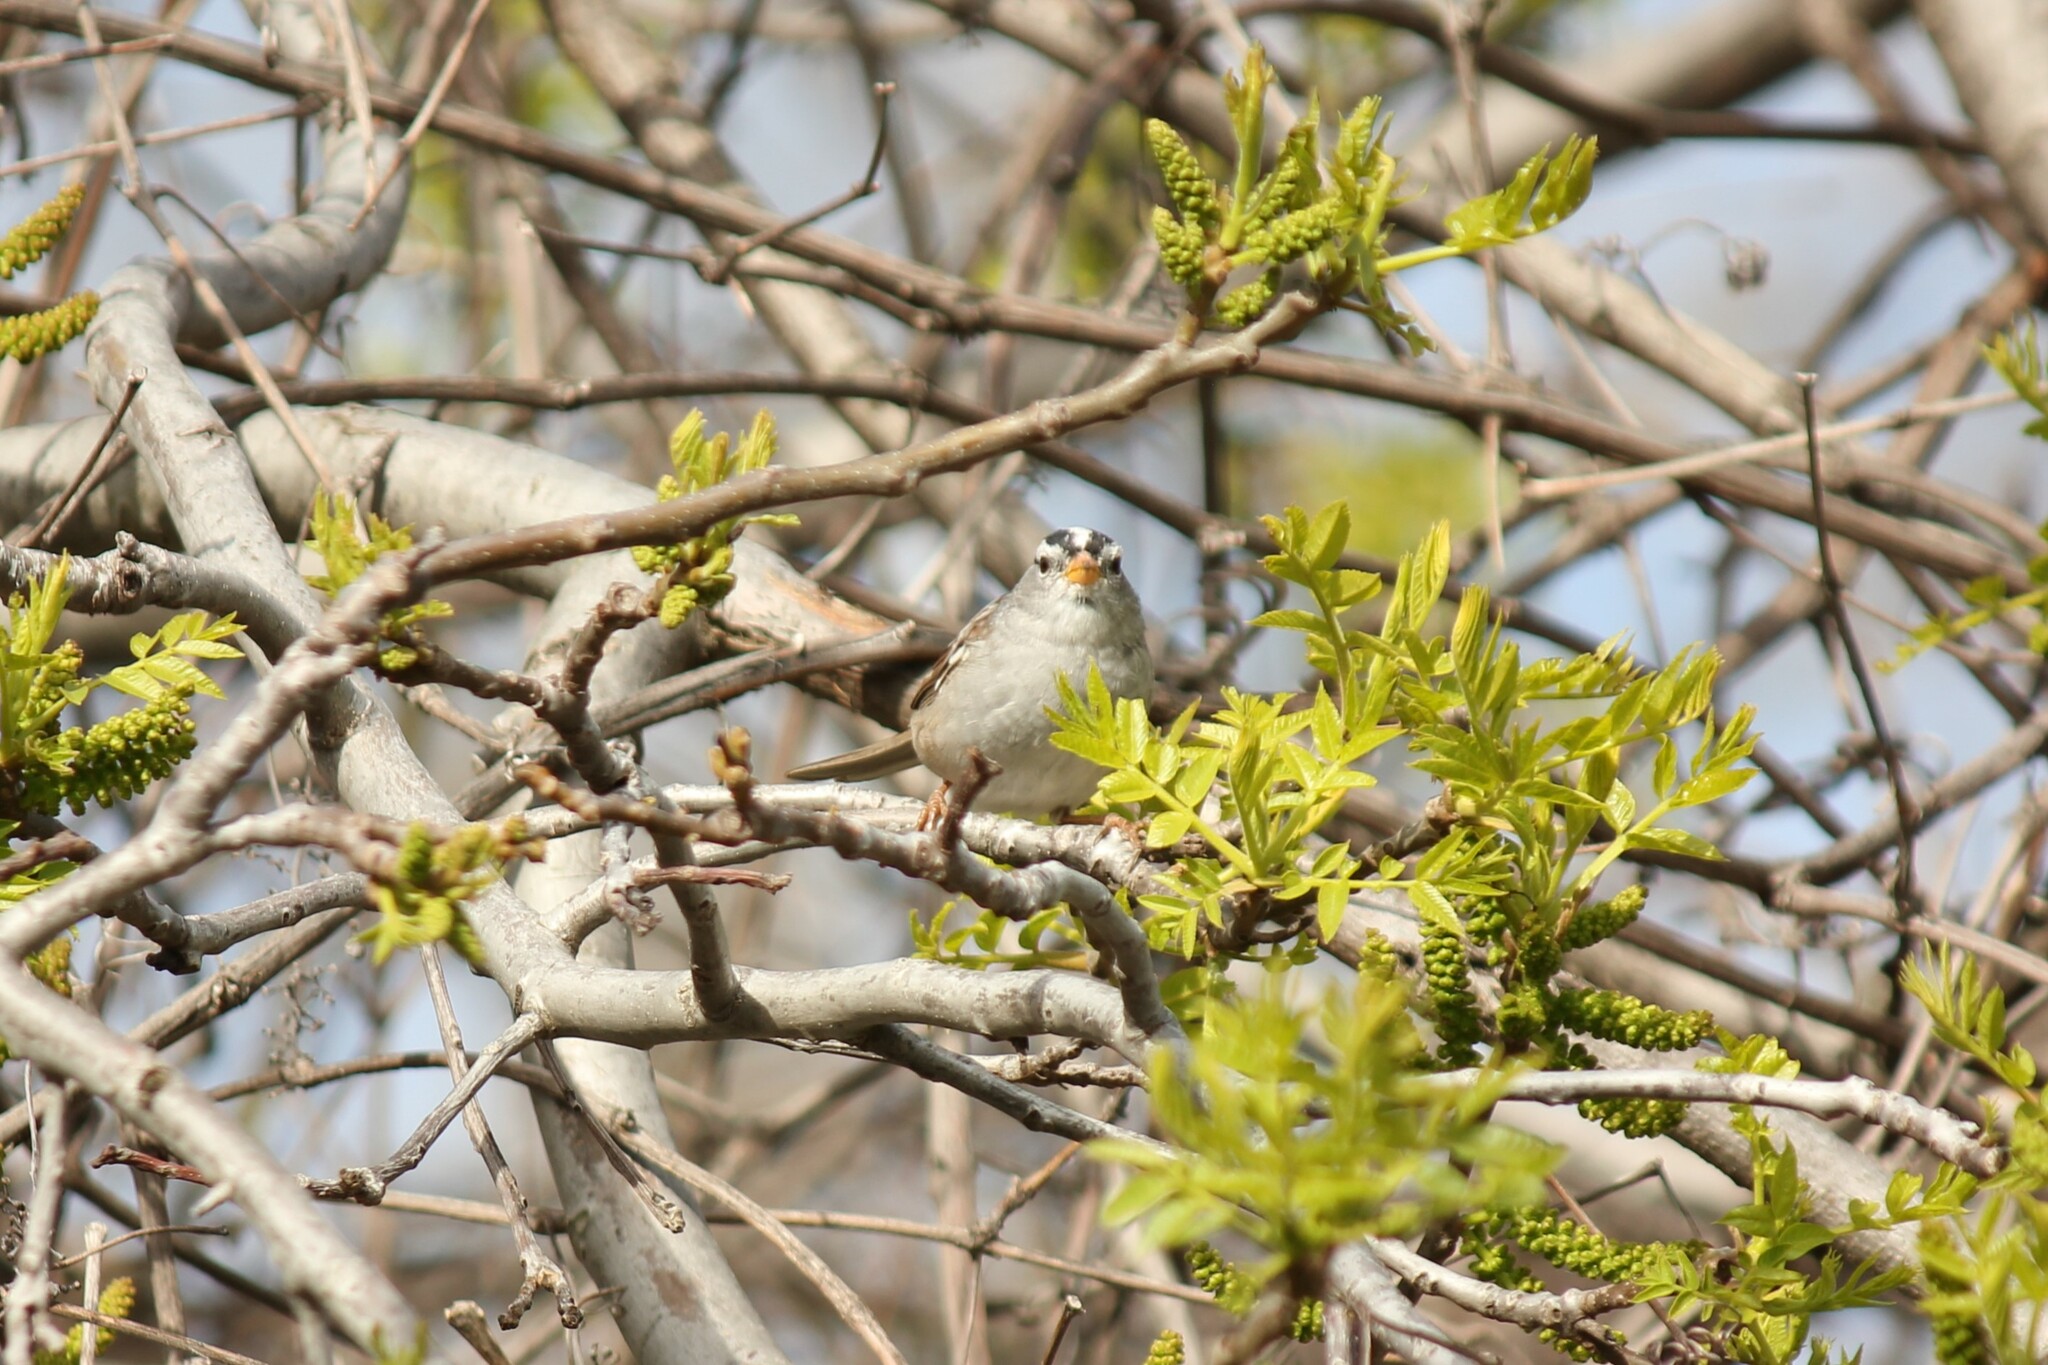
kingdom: Animalia
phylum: Chordata
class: Aves
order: Passeriformes
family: Passerellidae
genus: Zonotrichia
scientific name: Zonotrichia leucophrys
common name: White-crowned sparrow
